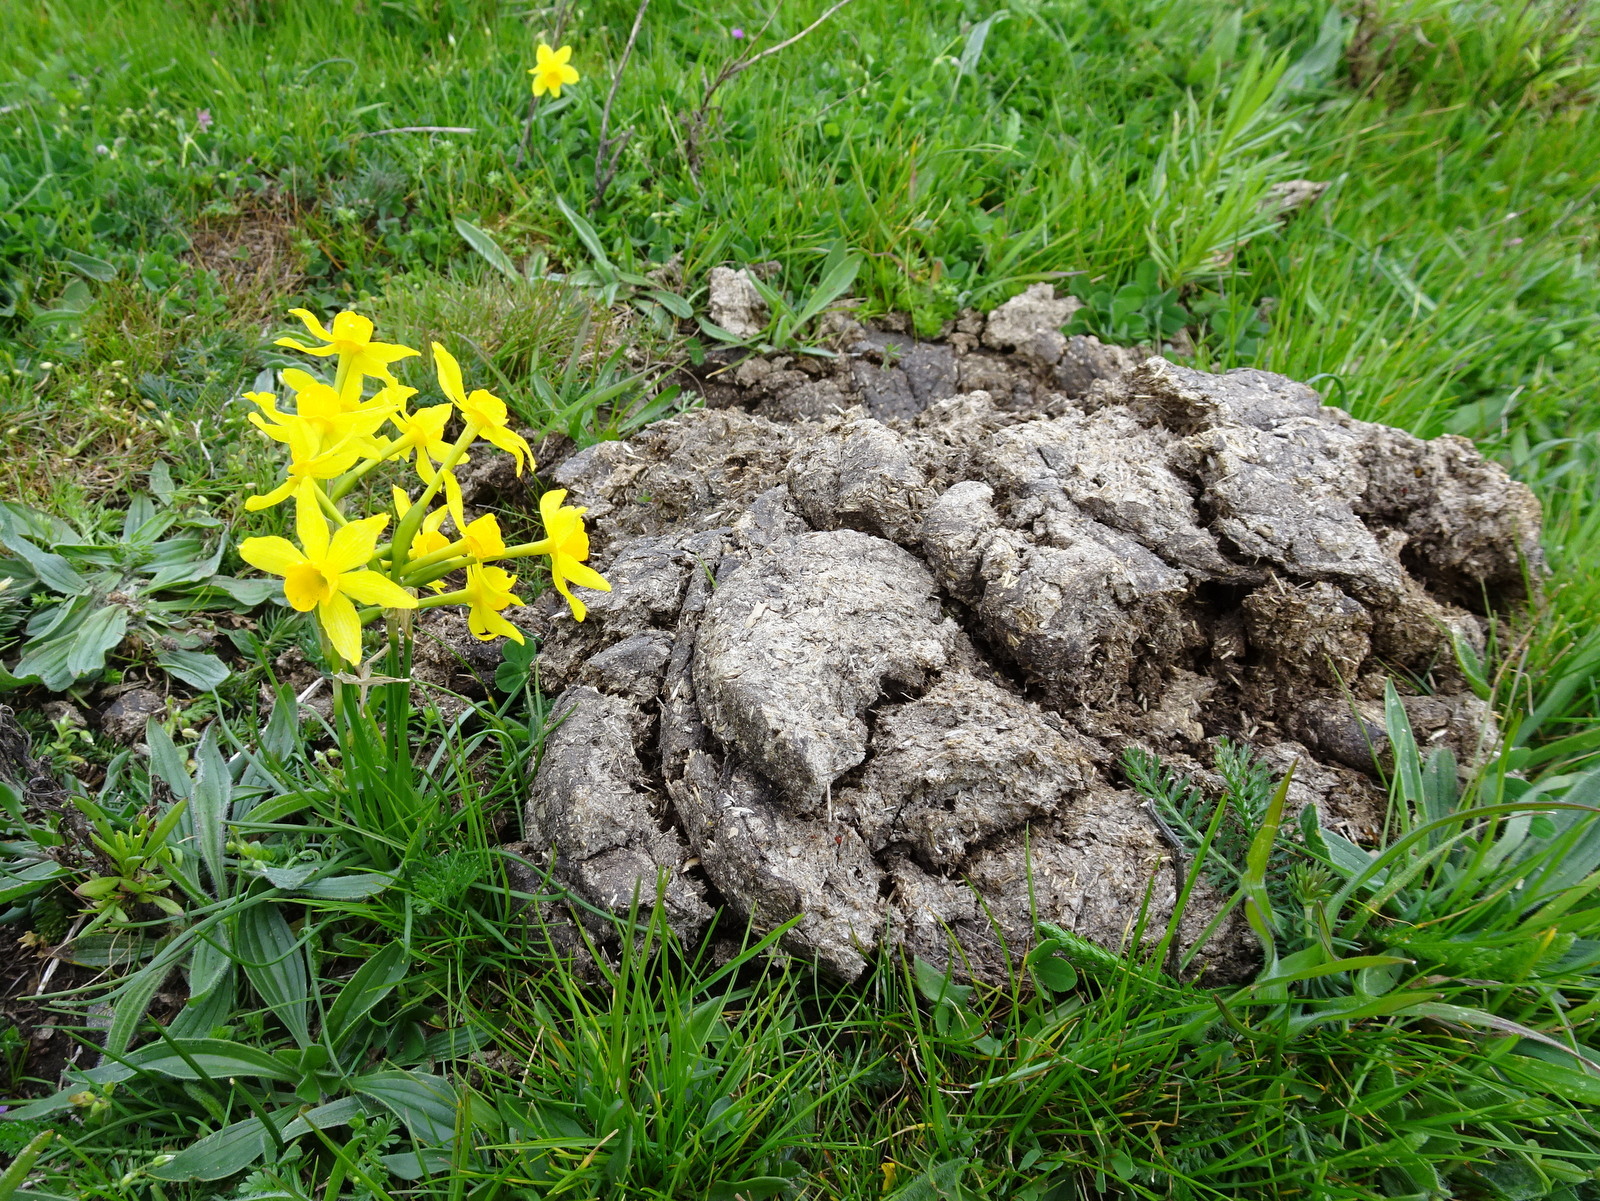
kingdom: Plantae
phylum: Tracheophyta
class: Liliopsida
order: Asparagales
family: Amaryllidaceae
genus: Narcissus
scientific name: Narcissus assoanus
